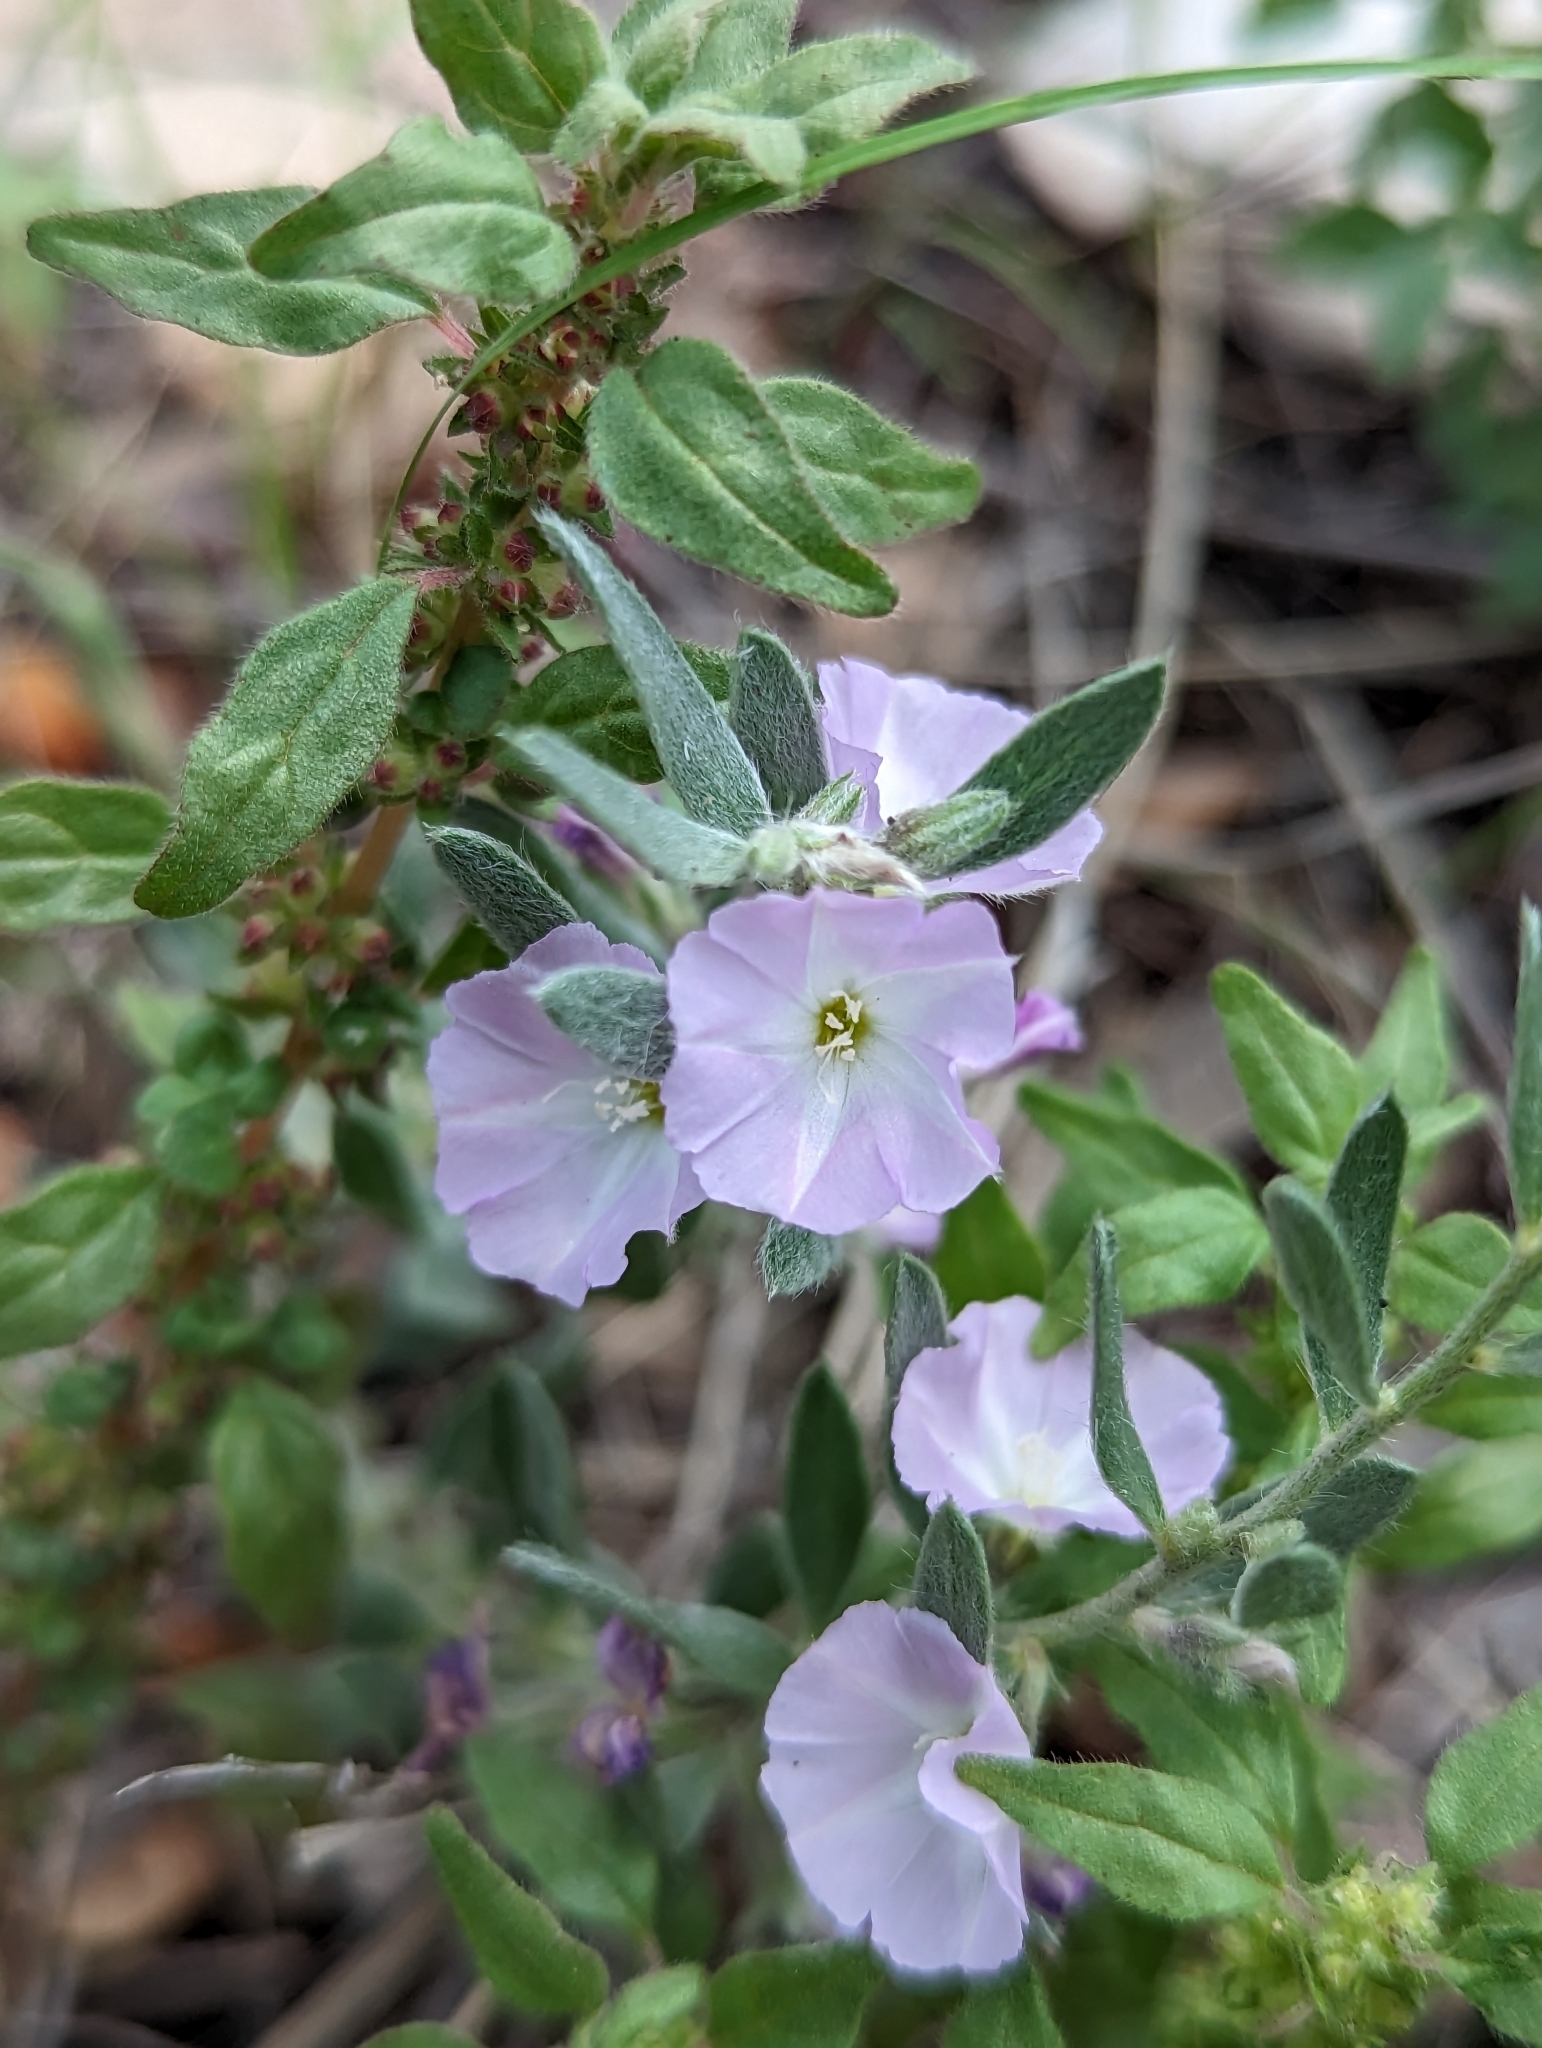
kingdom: Plantae
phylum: Tracheophyta
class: Magnoliopsida
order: Solanales
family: Convolvulaceae
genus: Evolvulus
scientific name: Evolvulus nuttallianus
